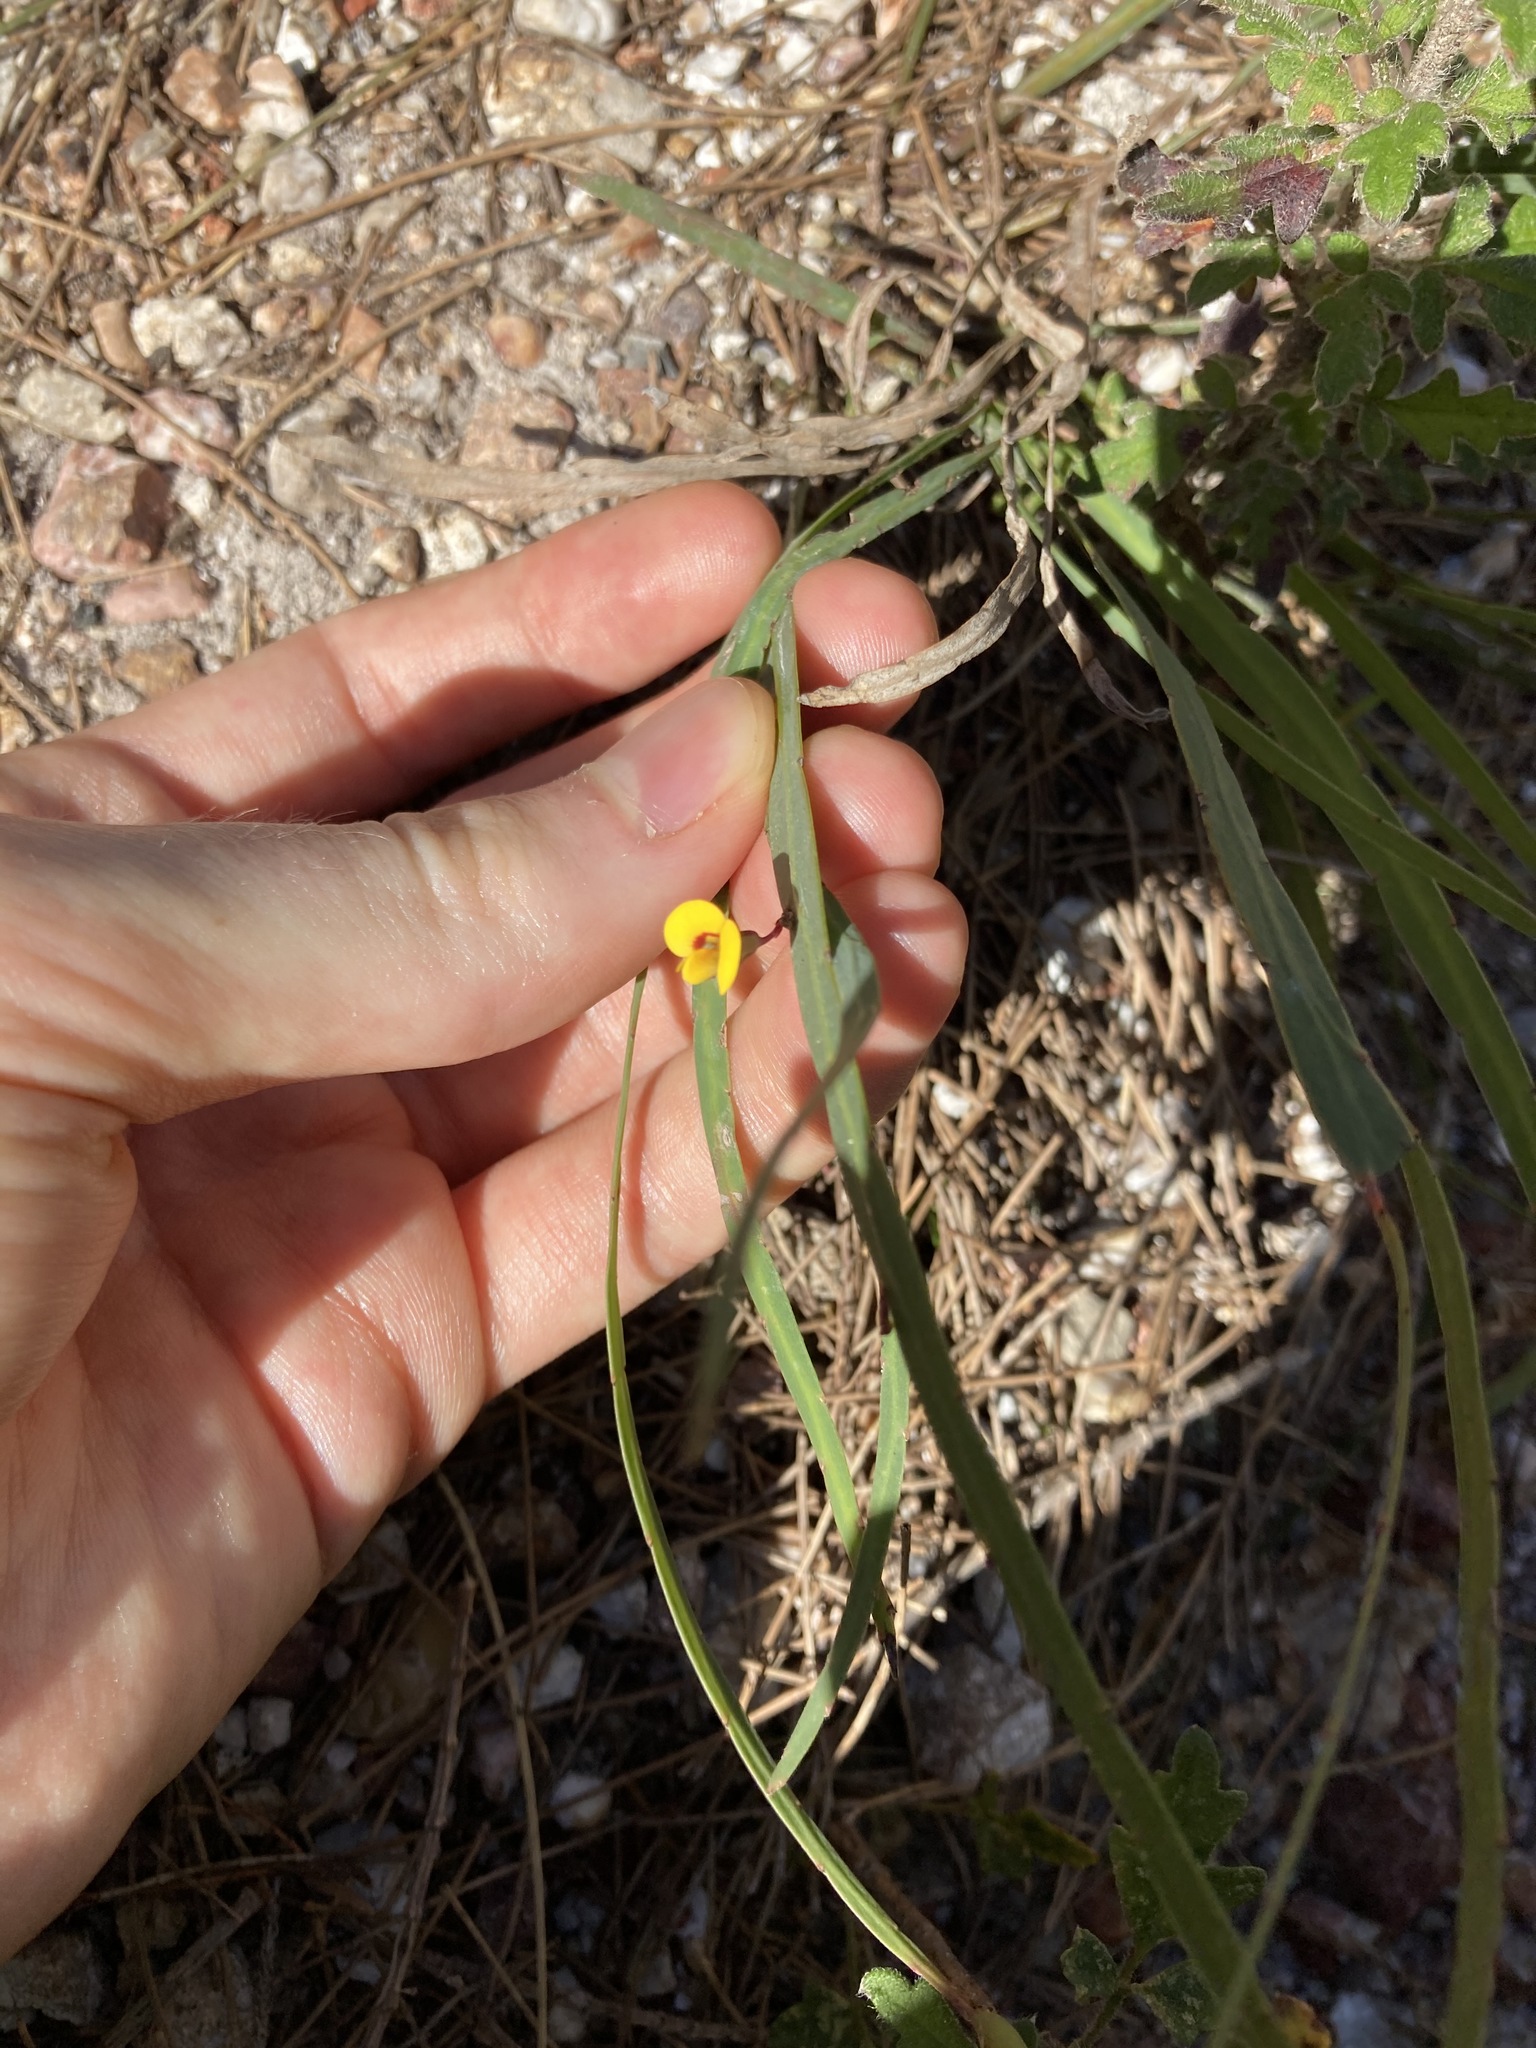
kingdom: Plantae
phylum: Tracheophyta
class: Magnoliopsida
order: Fabales
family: Fabaceae
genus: Bossiaea
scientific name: Bossiaea ensata
